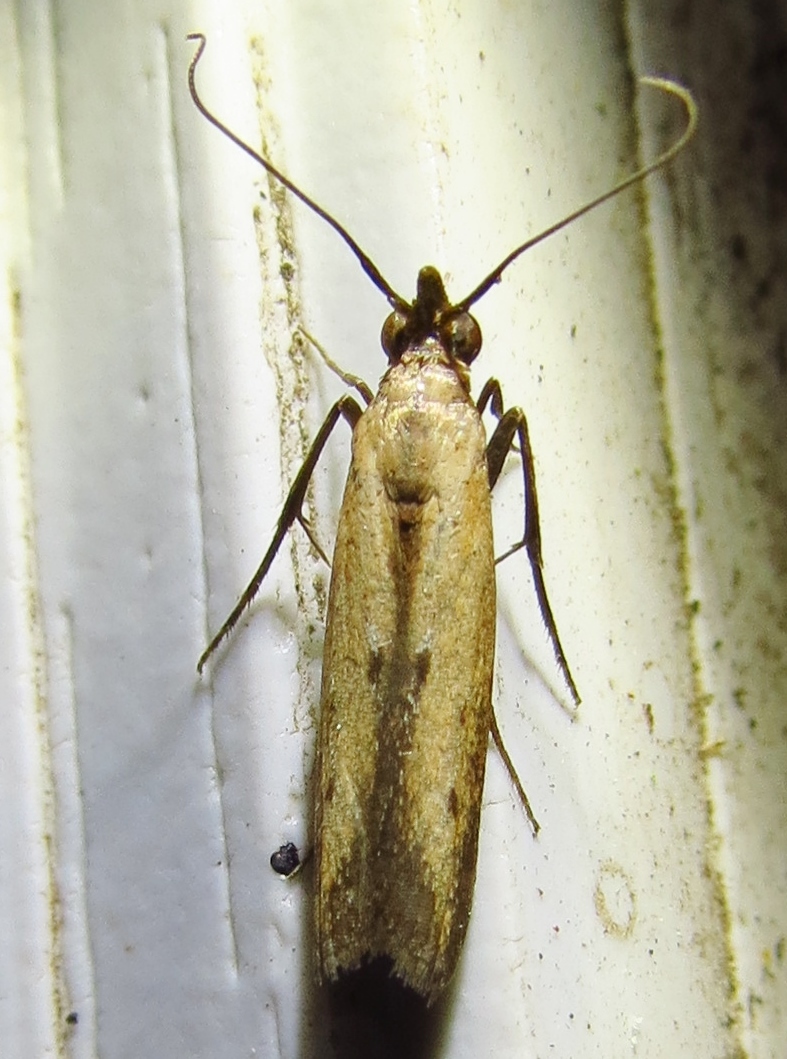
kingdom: Animalia
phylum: Arthropoda
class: Insecta
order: Lepidoptera
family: Pyralidae
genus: Elasmopalpus
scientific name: Elasmopalpus lignosella
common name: Lesser cornstalk borer
